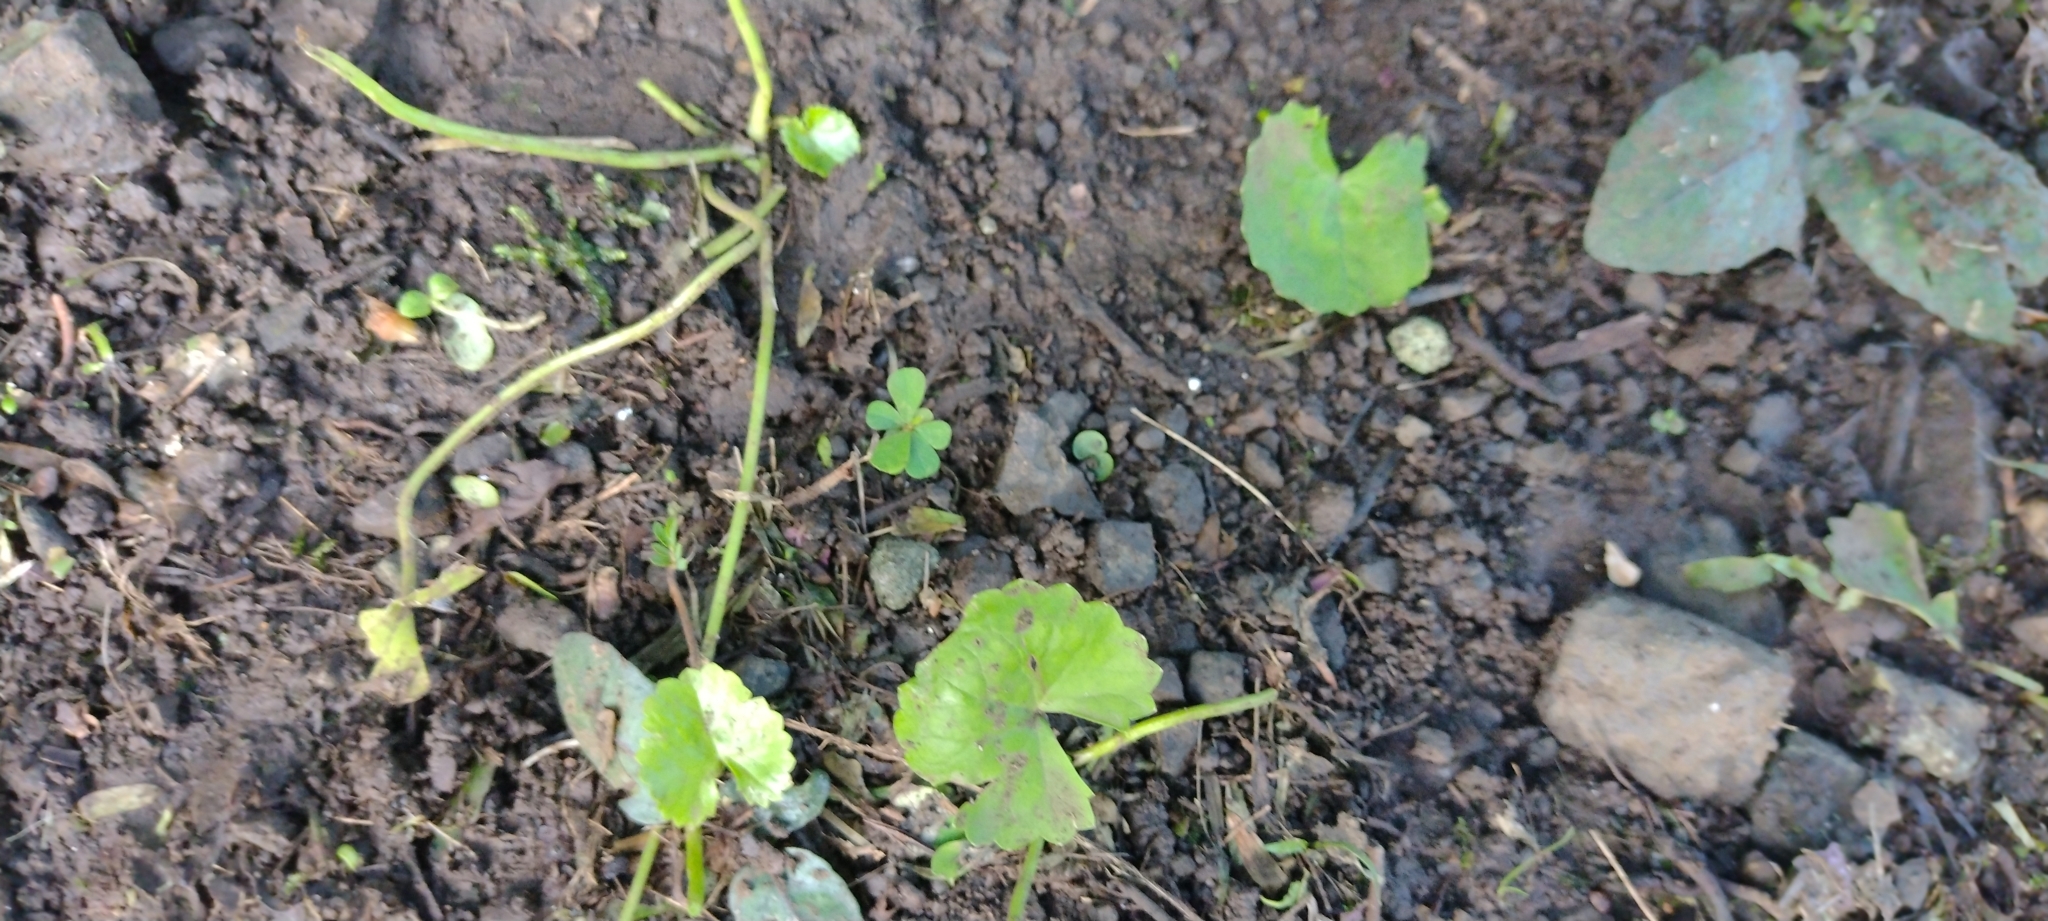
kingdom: Plantae
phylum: Tracheophyta
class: Magnoliopsida
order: Apiales
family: Apiaceae
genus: Centella
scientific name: Centella asiatica
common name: Spadeleaf
